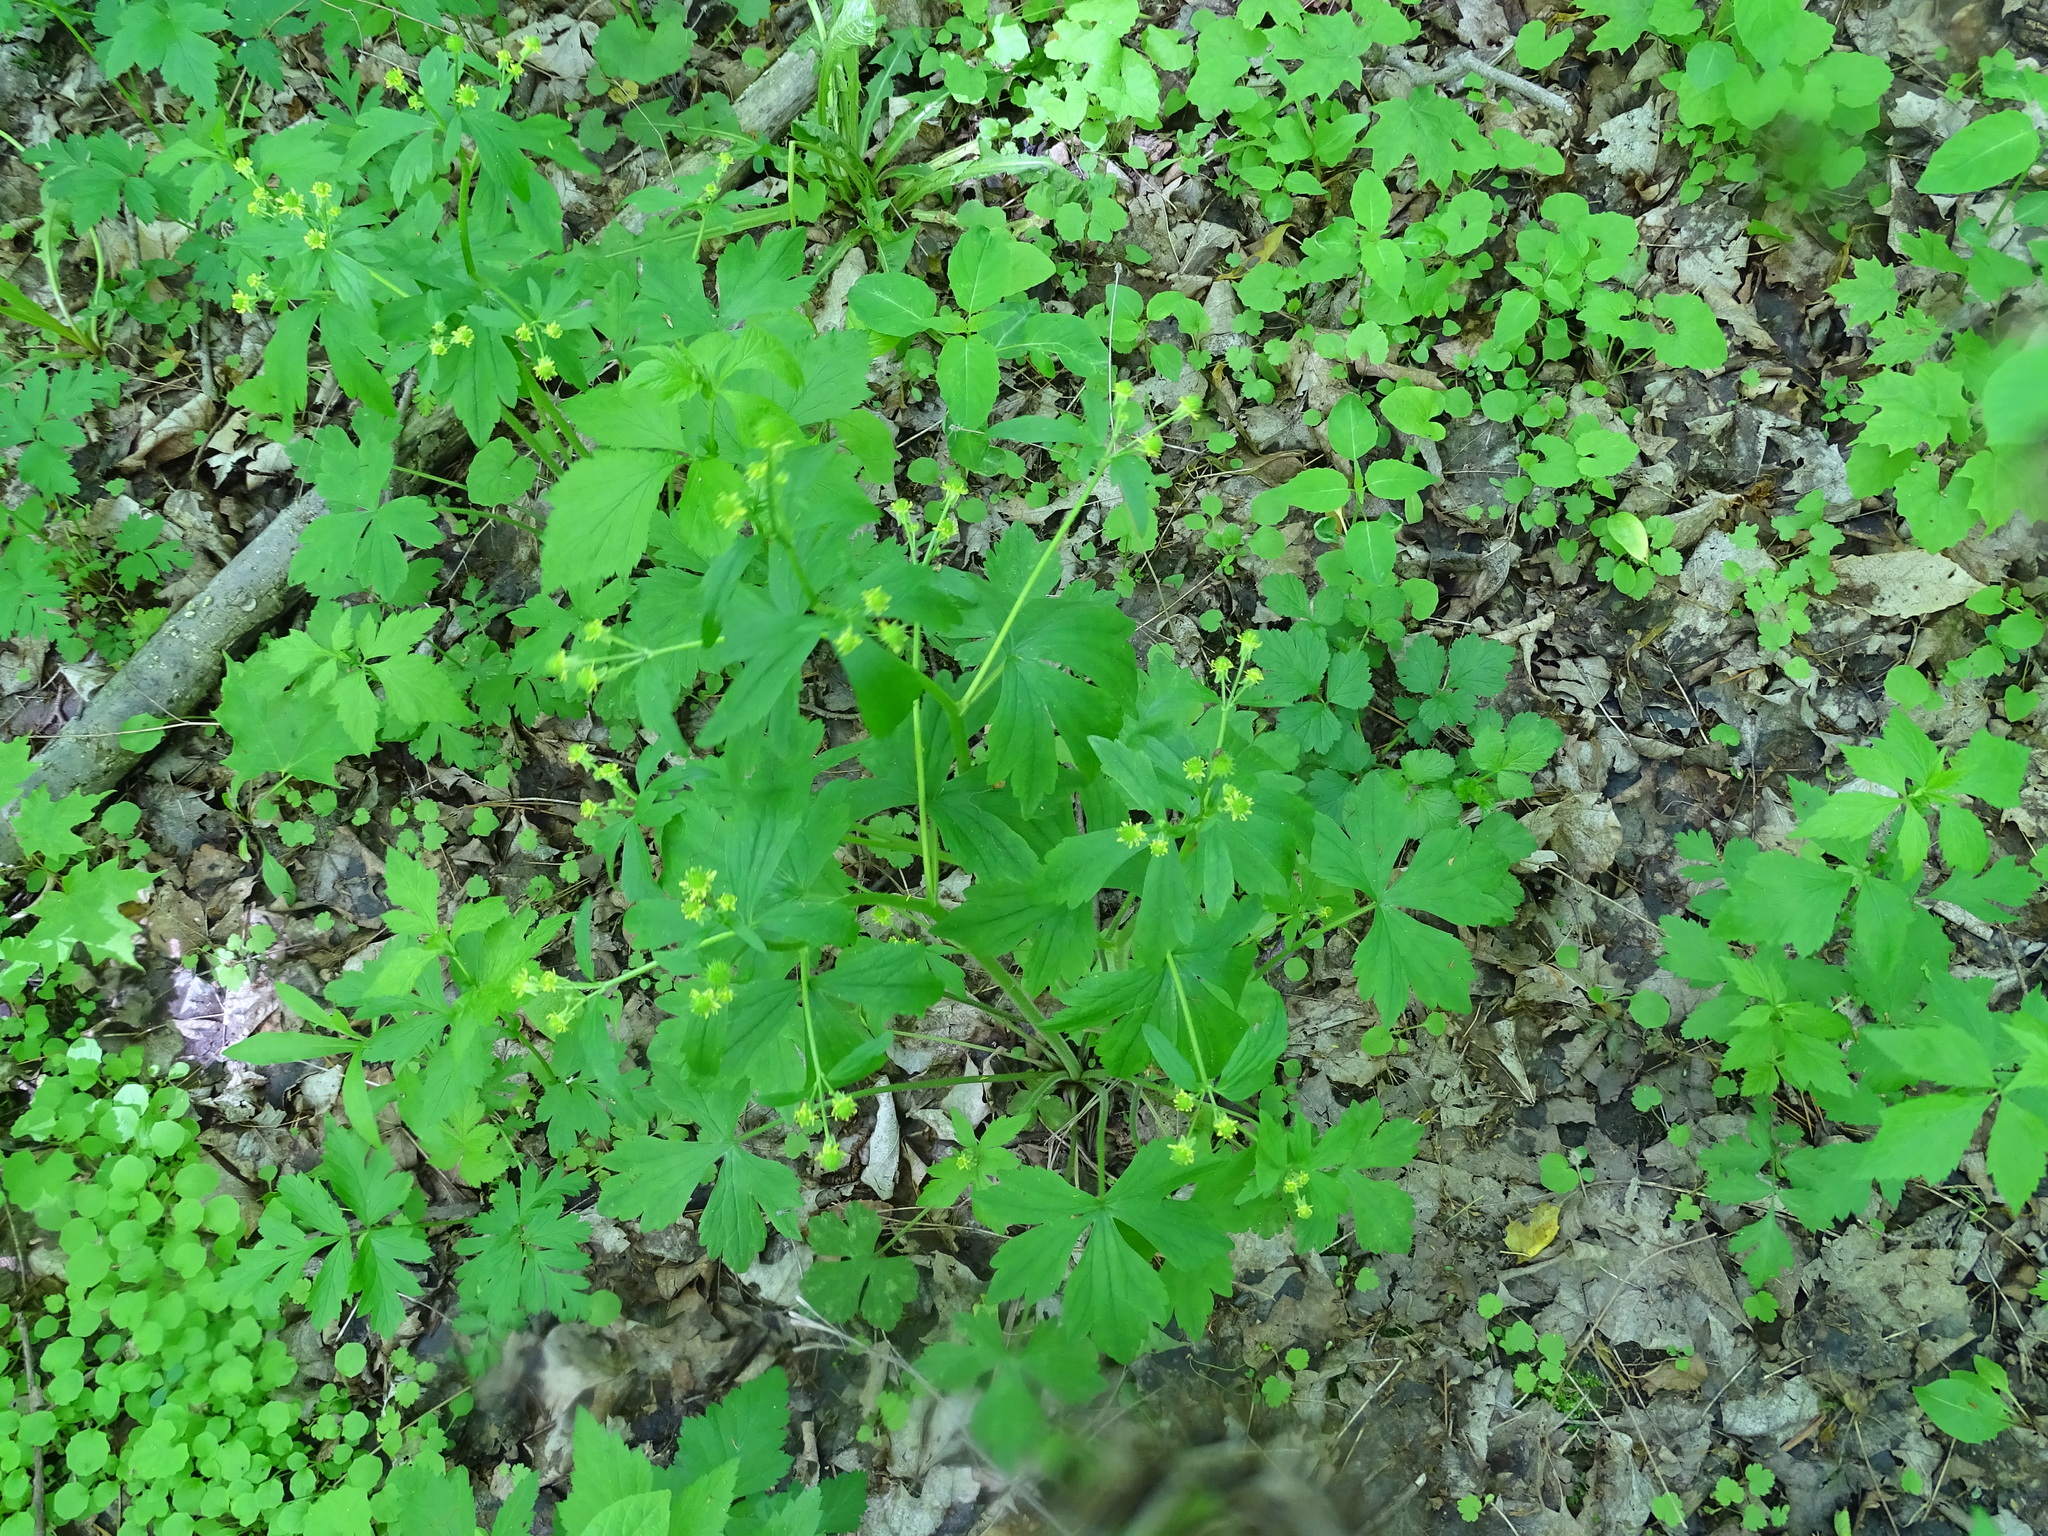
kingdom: Plantae
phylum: Tracheophyta
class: Magnoliopsida
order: Ranunculales
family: Ranunculaceae
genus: Ranunculus
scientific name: Ranunculus recurvatus
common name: Blisterwort
